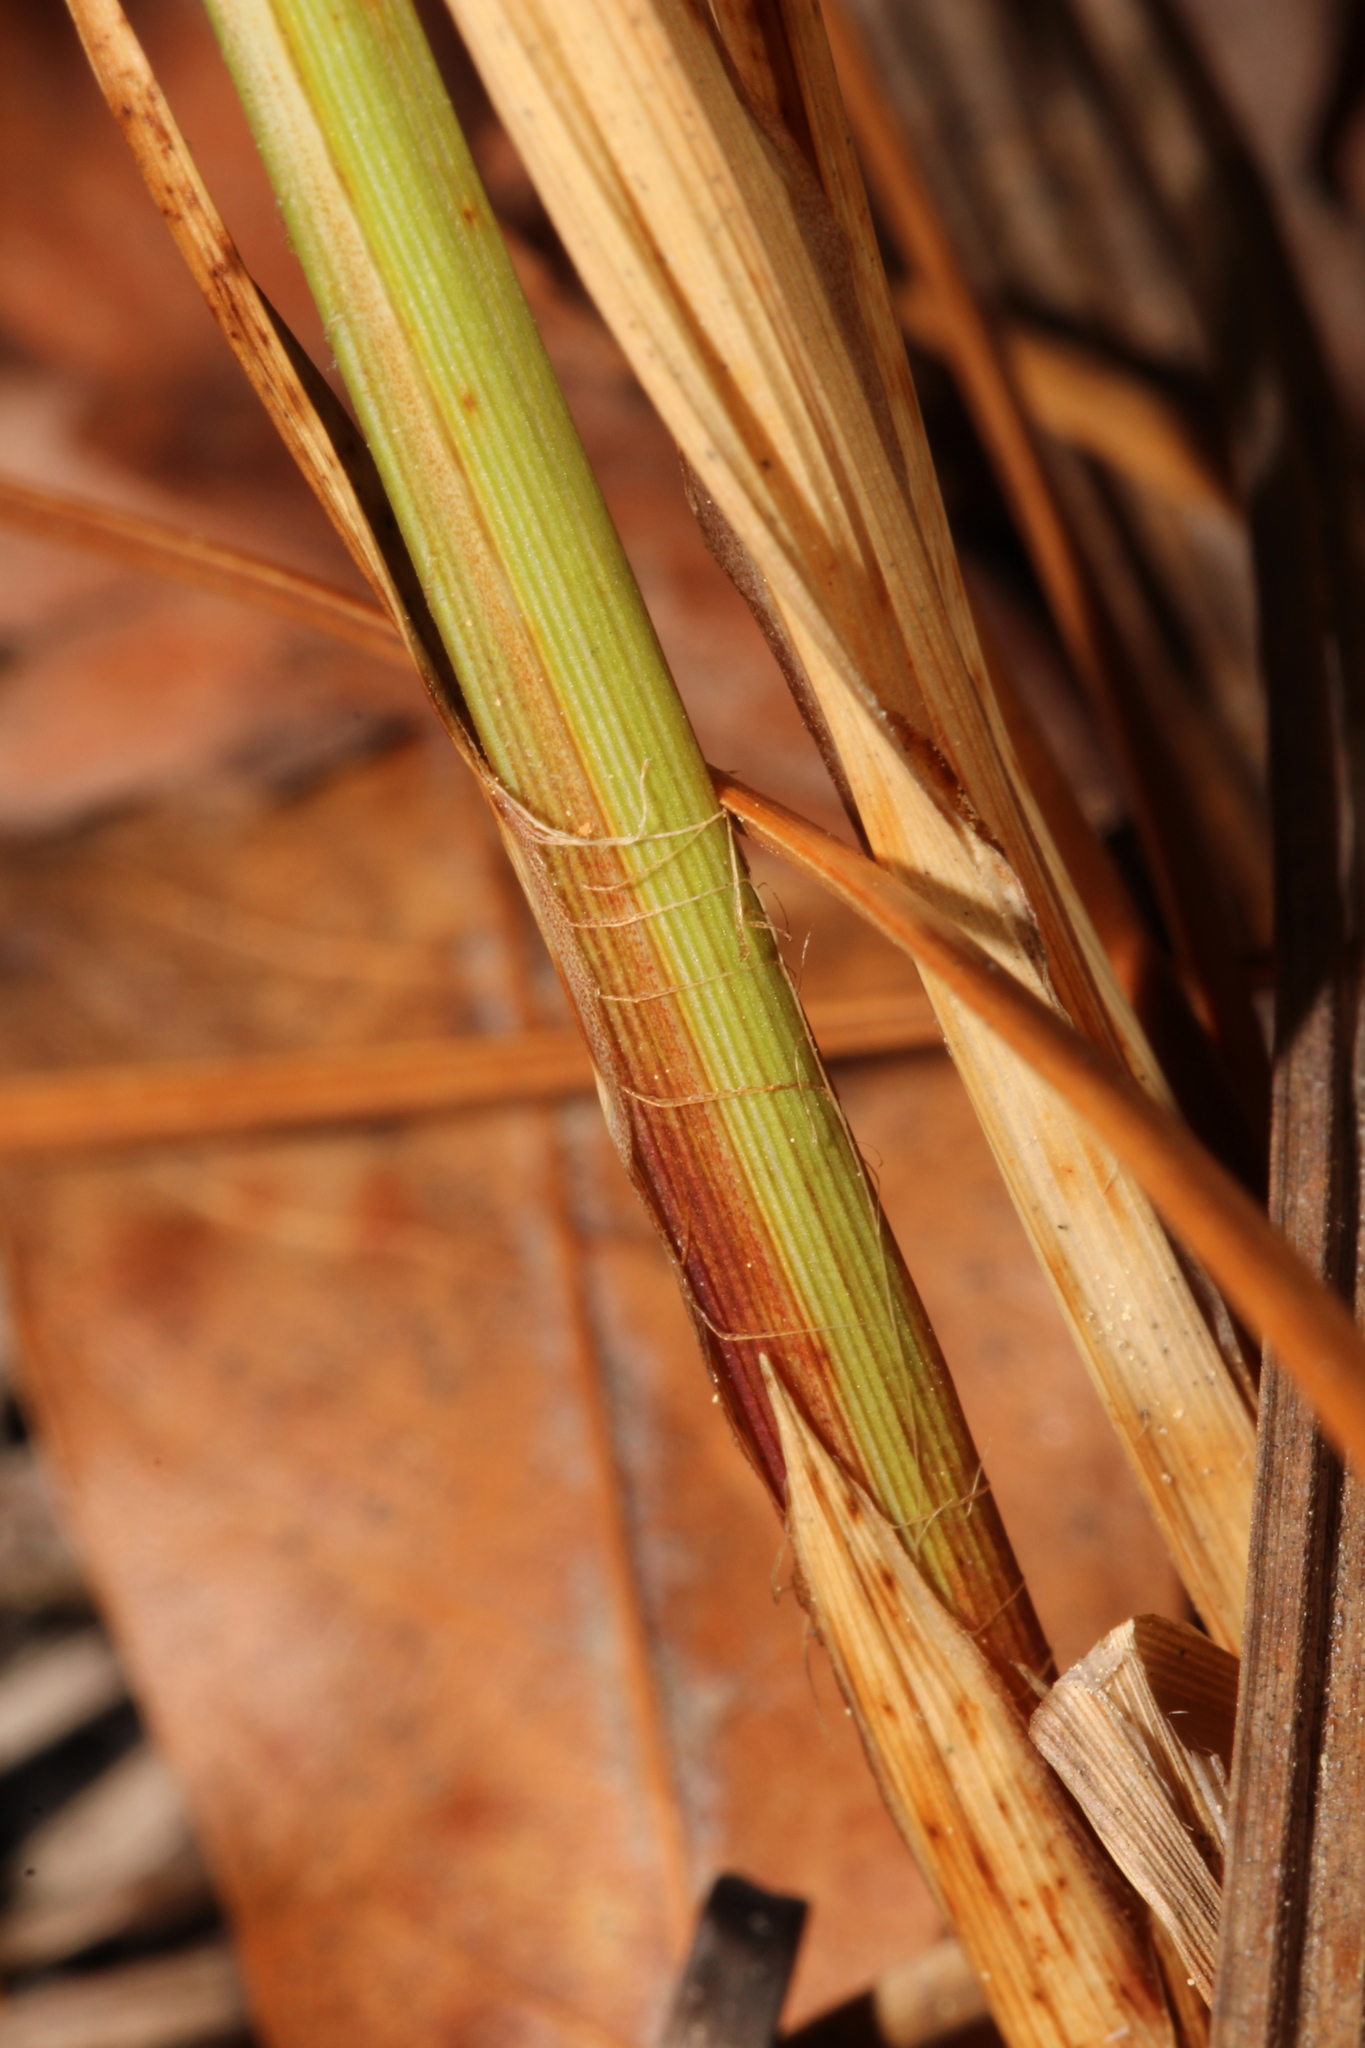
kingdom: Plantae
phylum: Tracheophyta
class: Liliopsida
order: Poales
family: Cyperaceae
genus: Carex
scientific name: Carex vestita
